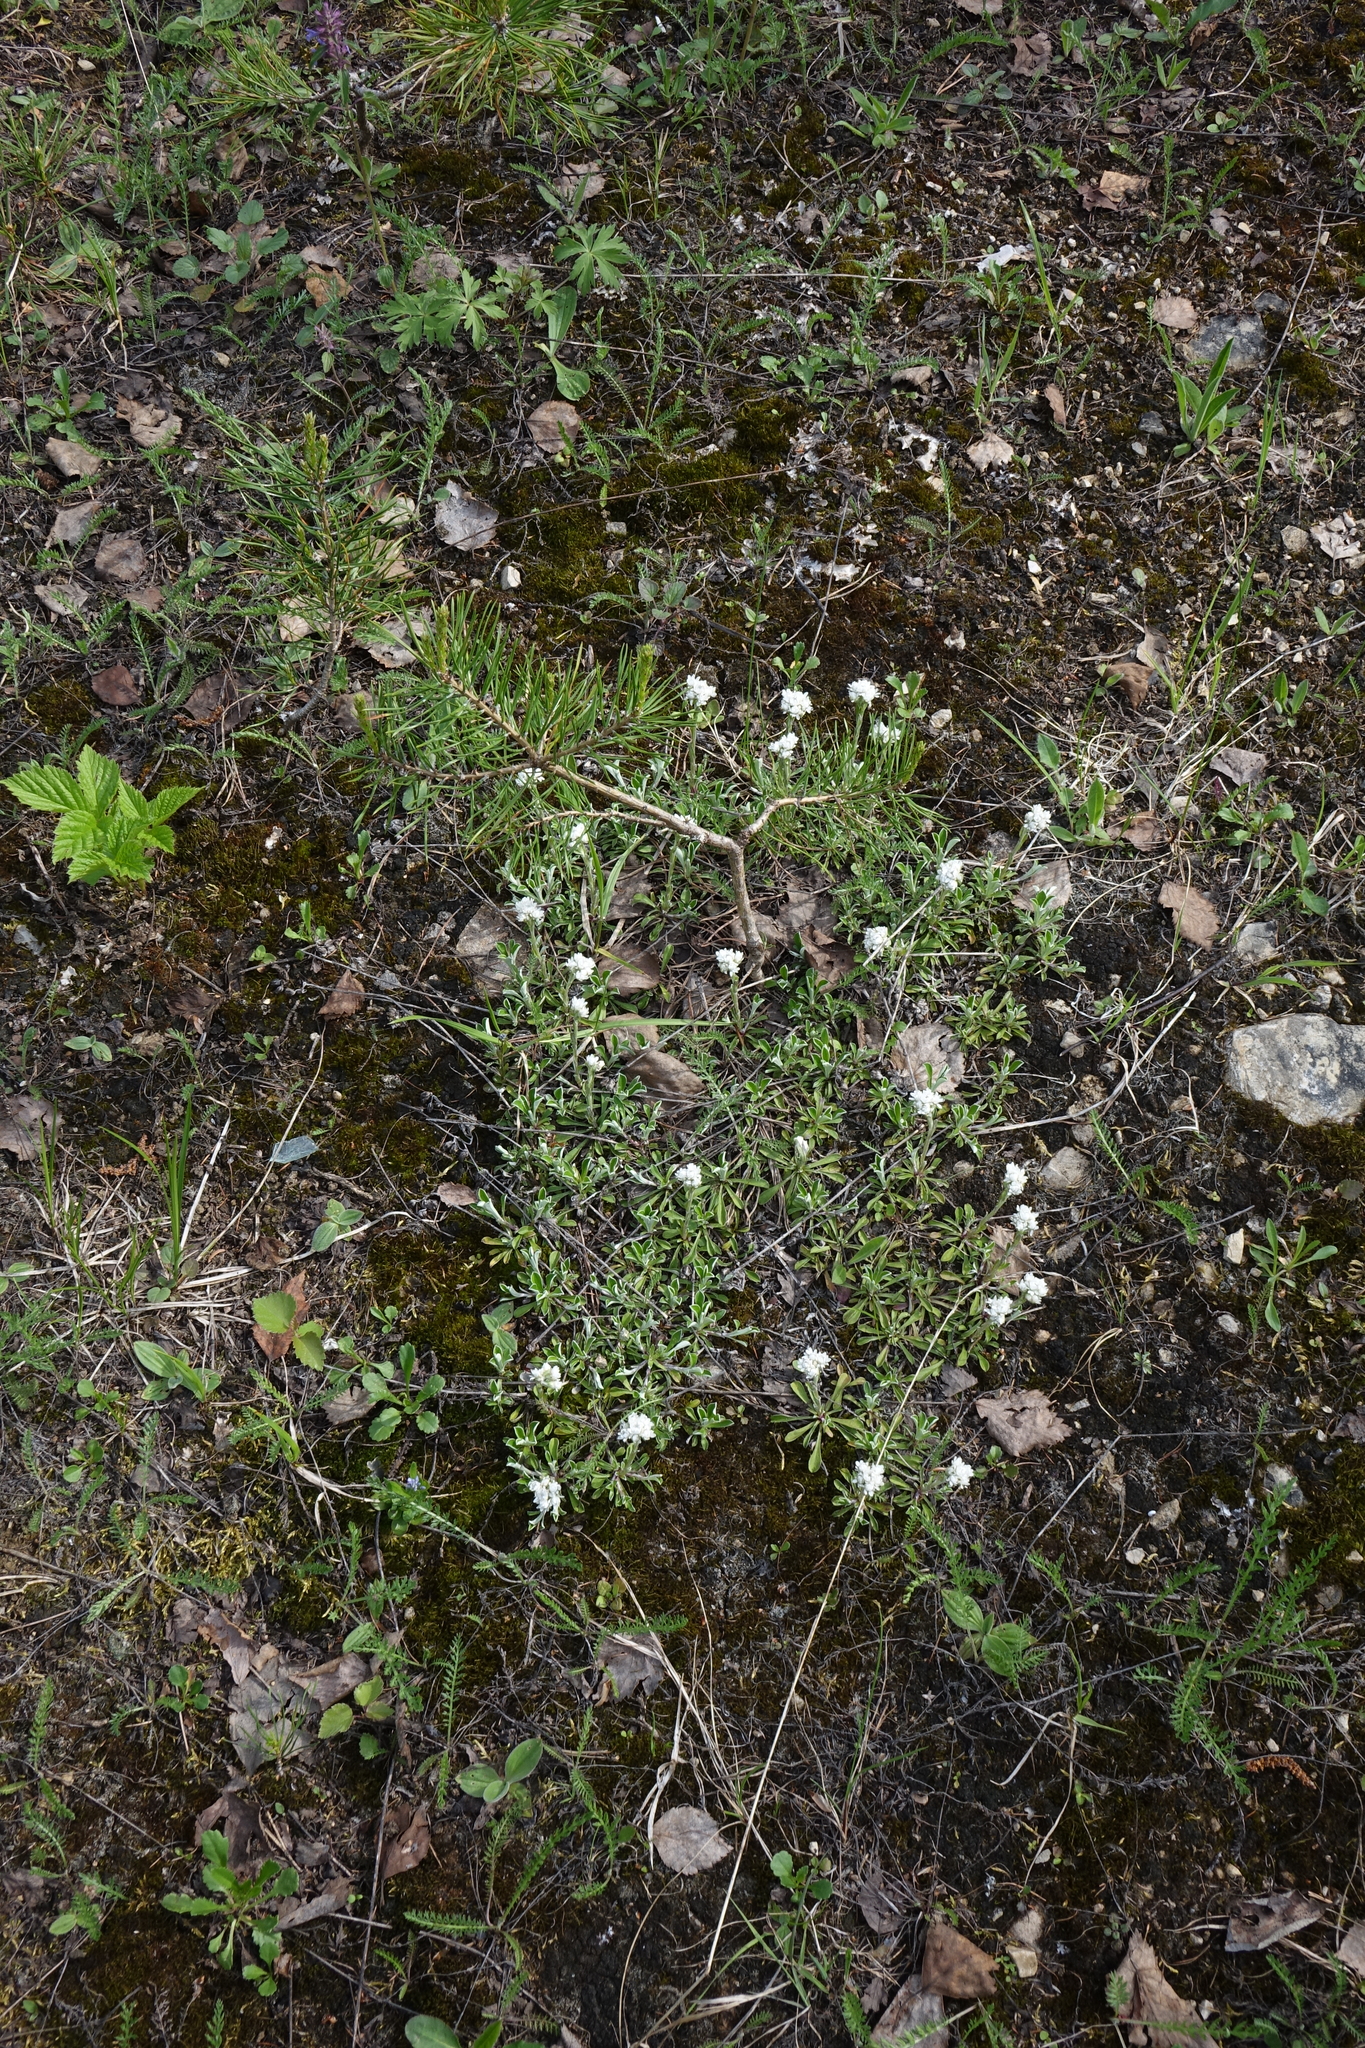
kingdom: Plantae
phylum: Tracheophyta
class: Magnoliopsida
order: Asterales
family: Asteraceae
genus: Antennaria
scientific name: Antennaria dioica
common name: Mountain everlasting
